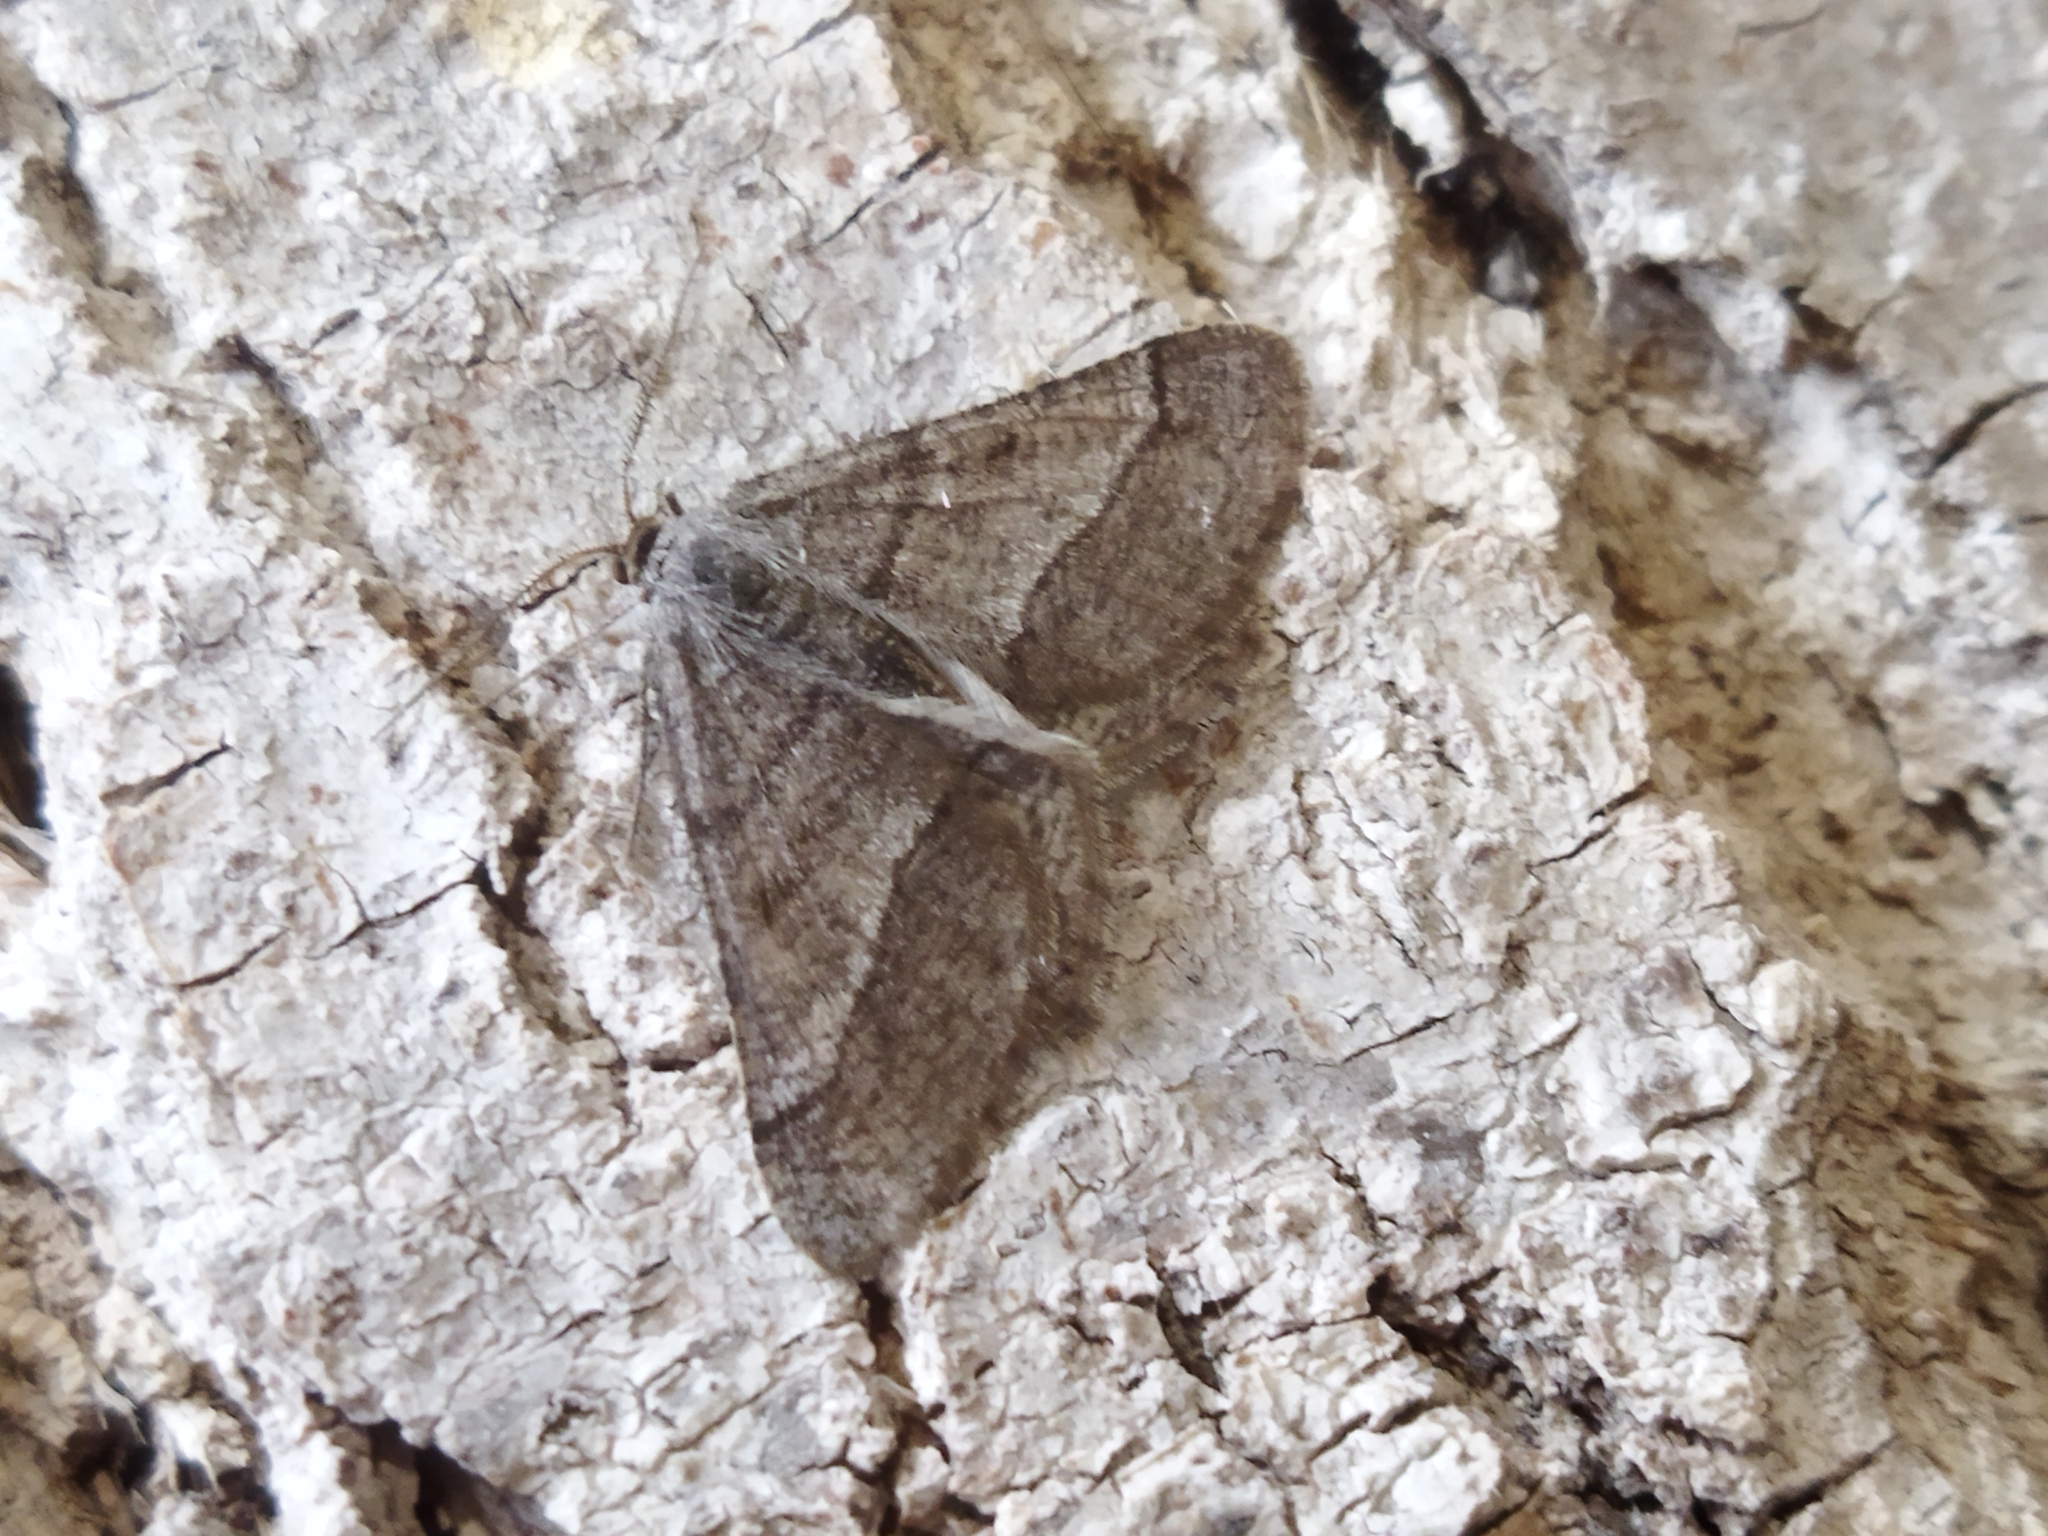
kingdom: Animalia
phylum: Arthropoda
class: Insecta
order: Lepidoptera
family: Geometridae
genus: Tephrina
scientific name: Tephrina murinaria
